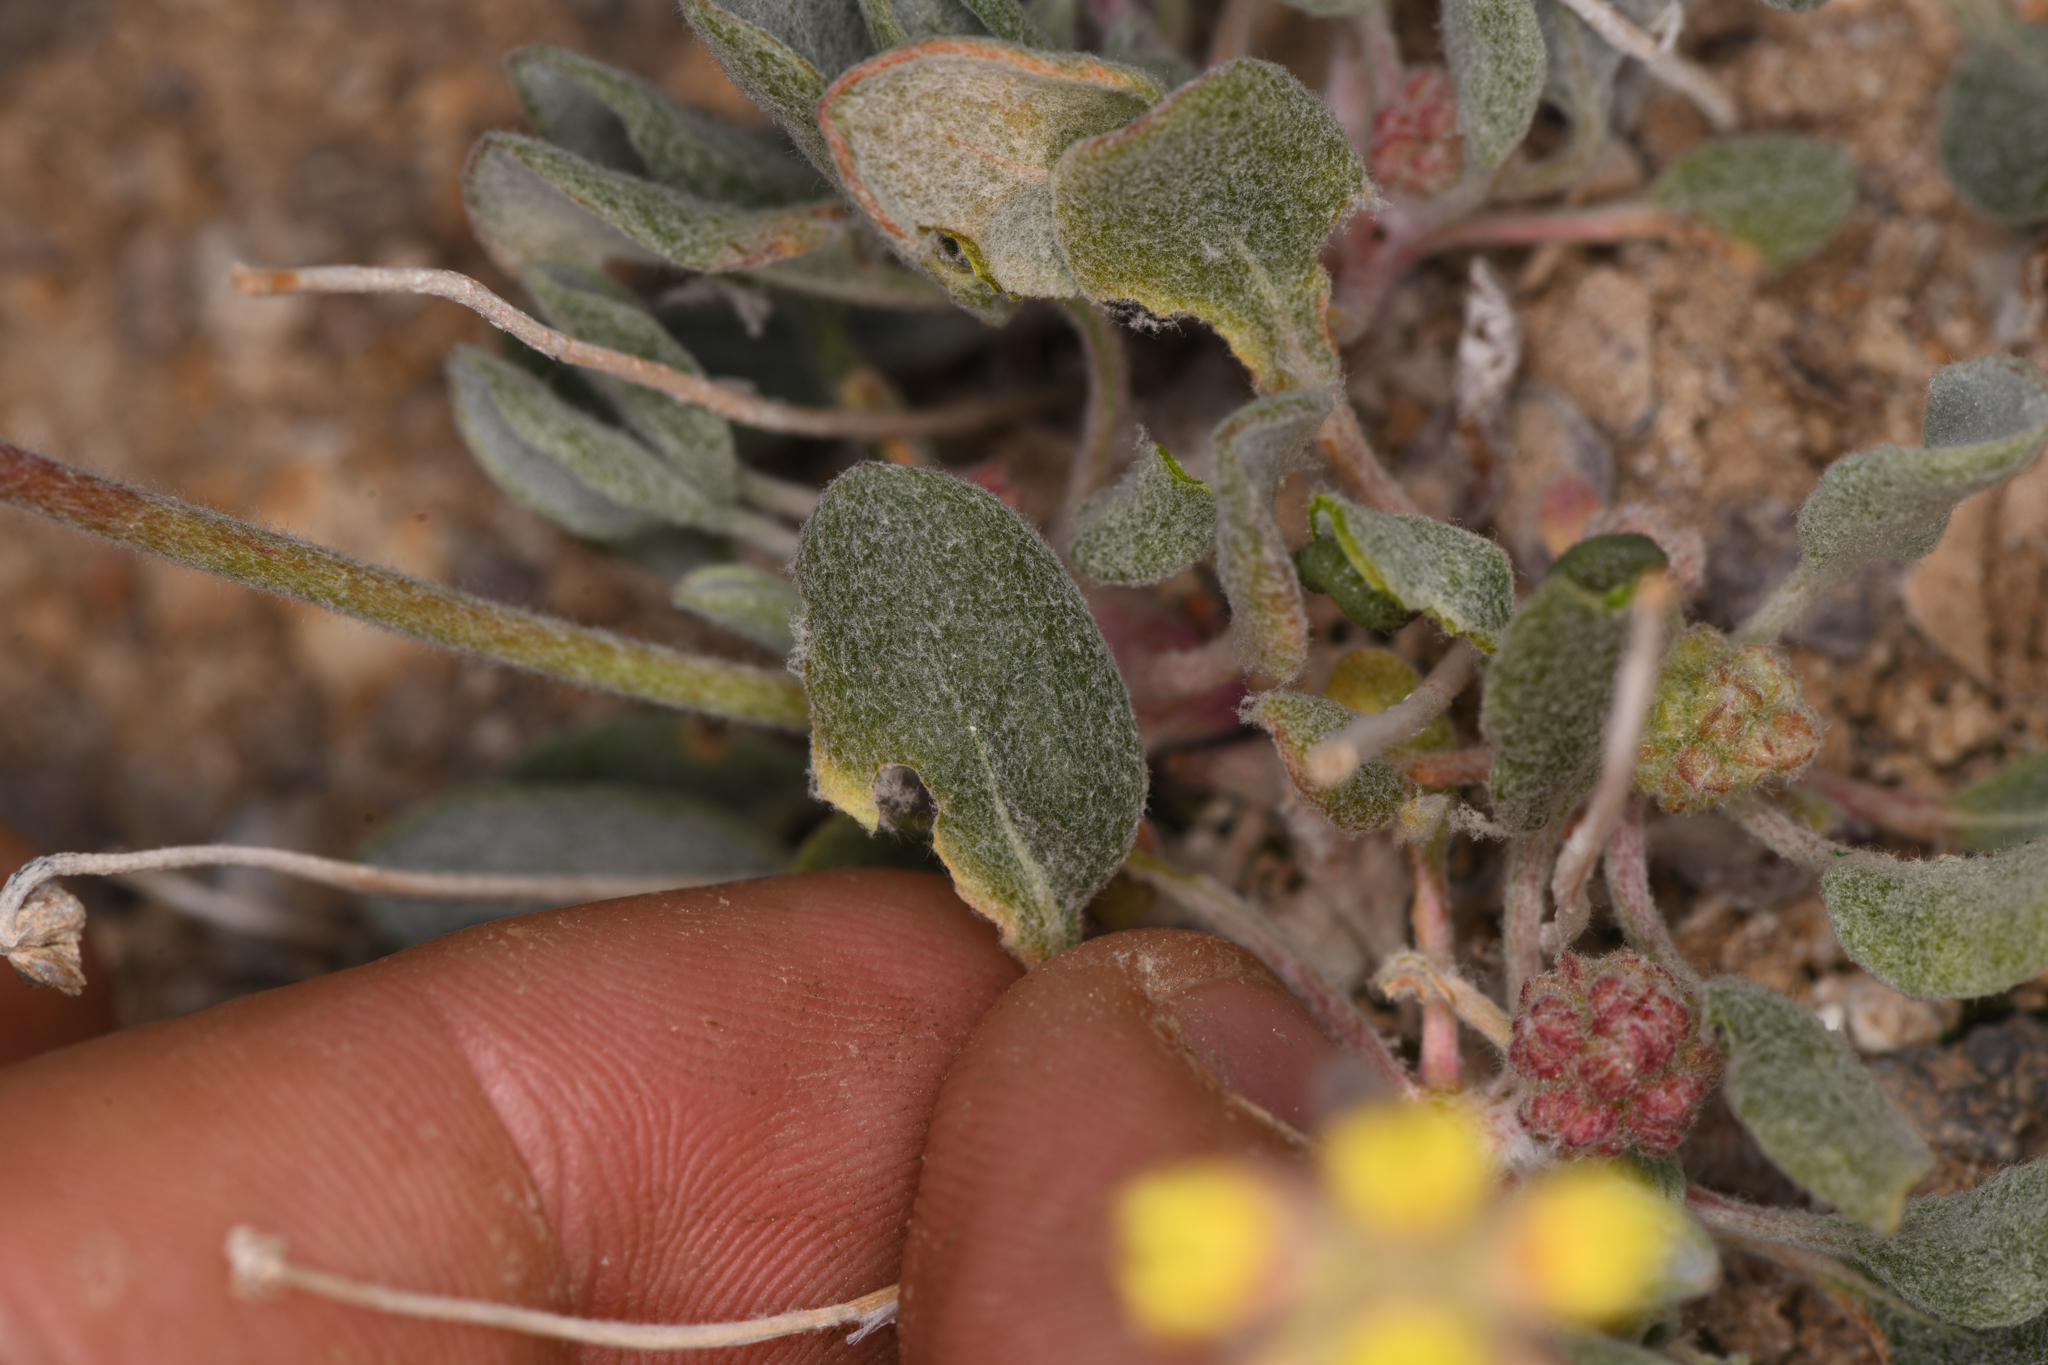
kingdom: Plantae
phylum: Tracheophyta
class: Magnoliopsida
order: Caryophyllales
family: Polygonaceae
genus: Eriogonum
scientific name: Eriogonum alexanderae
